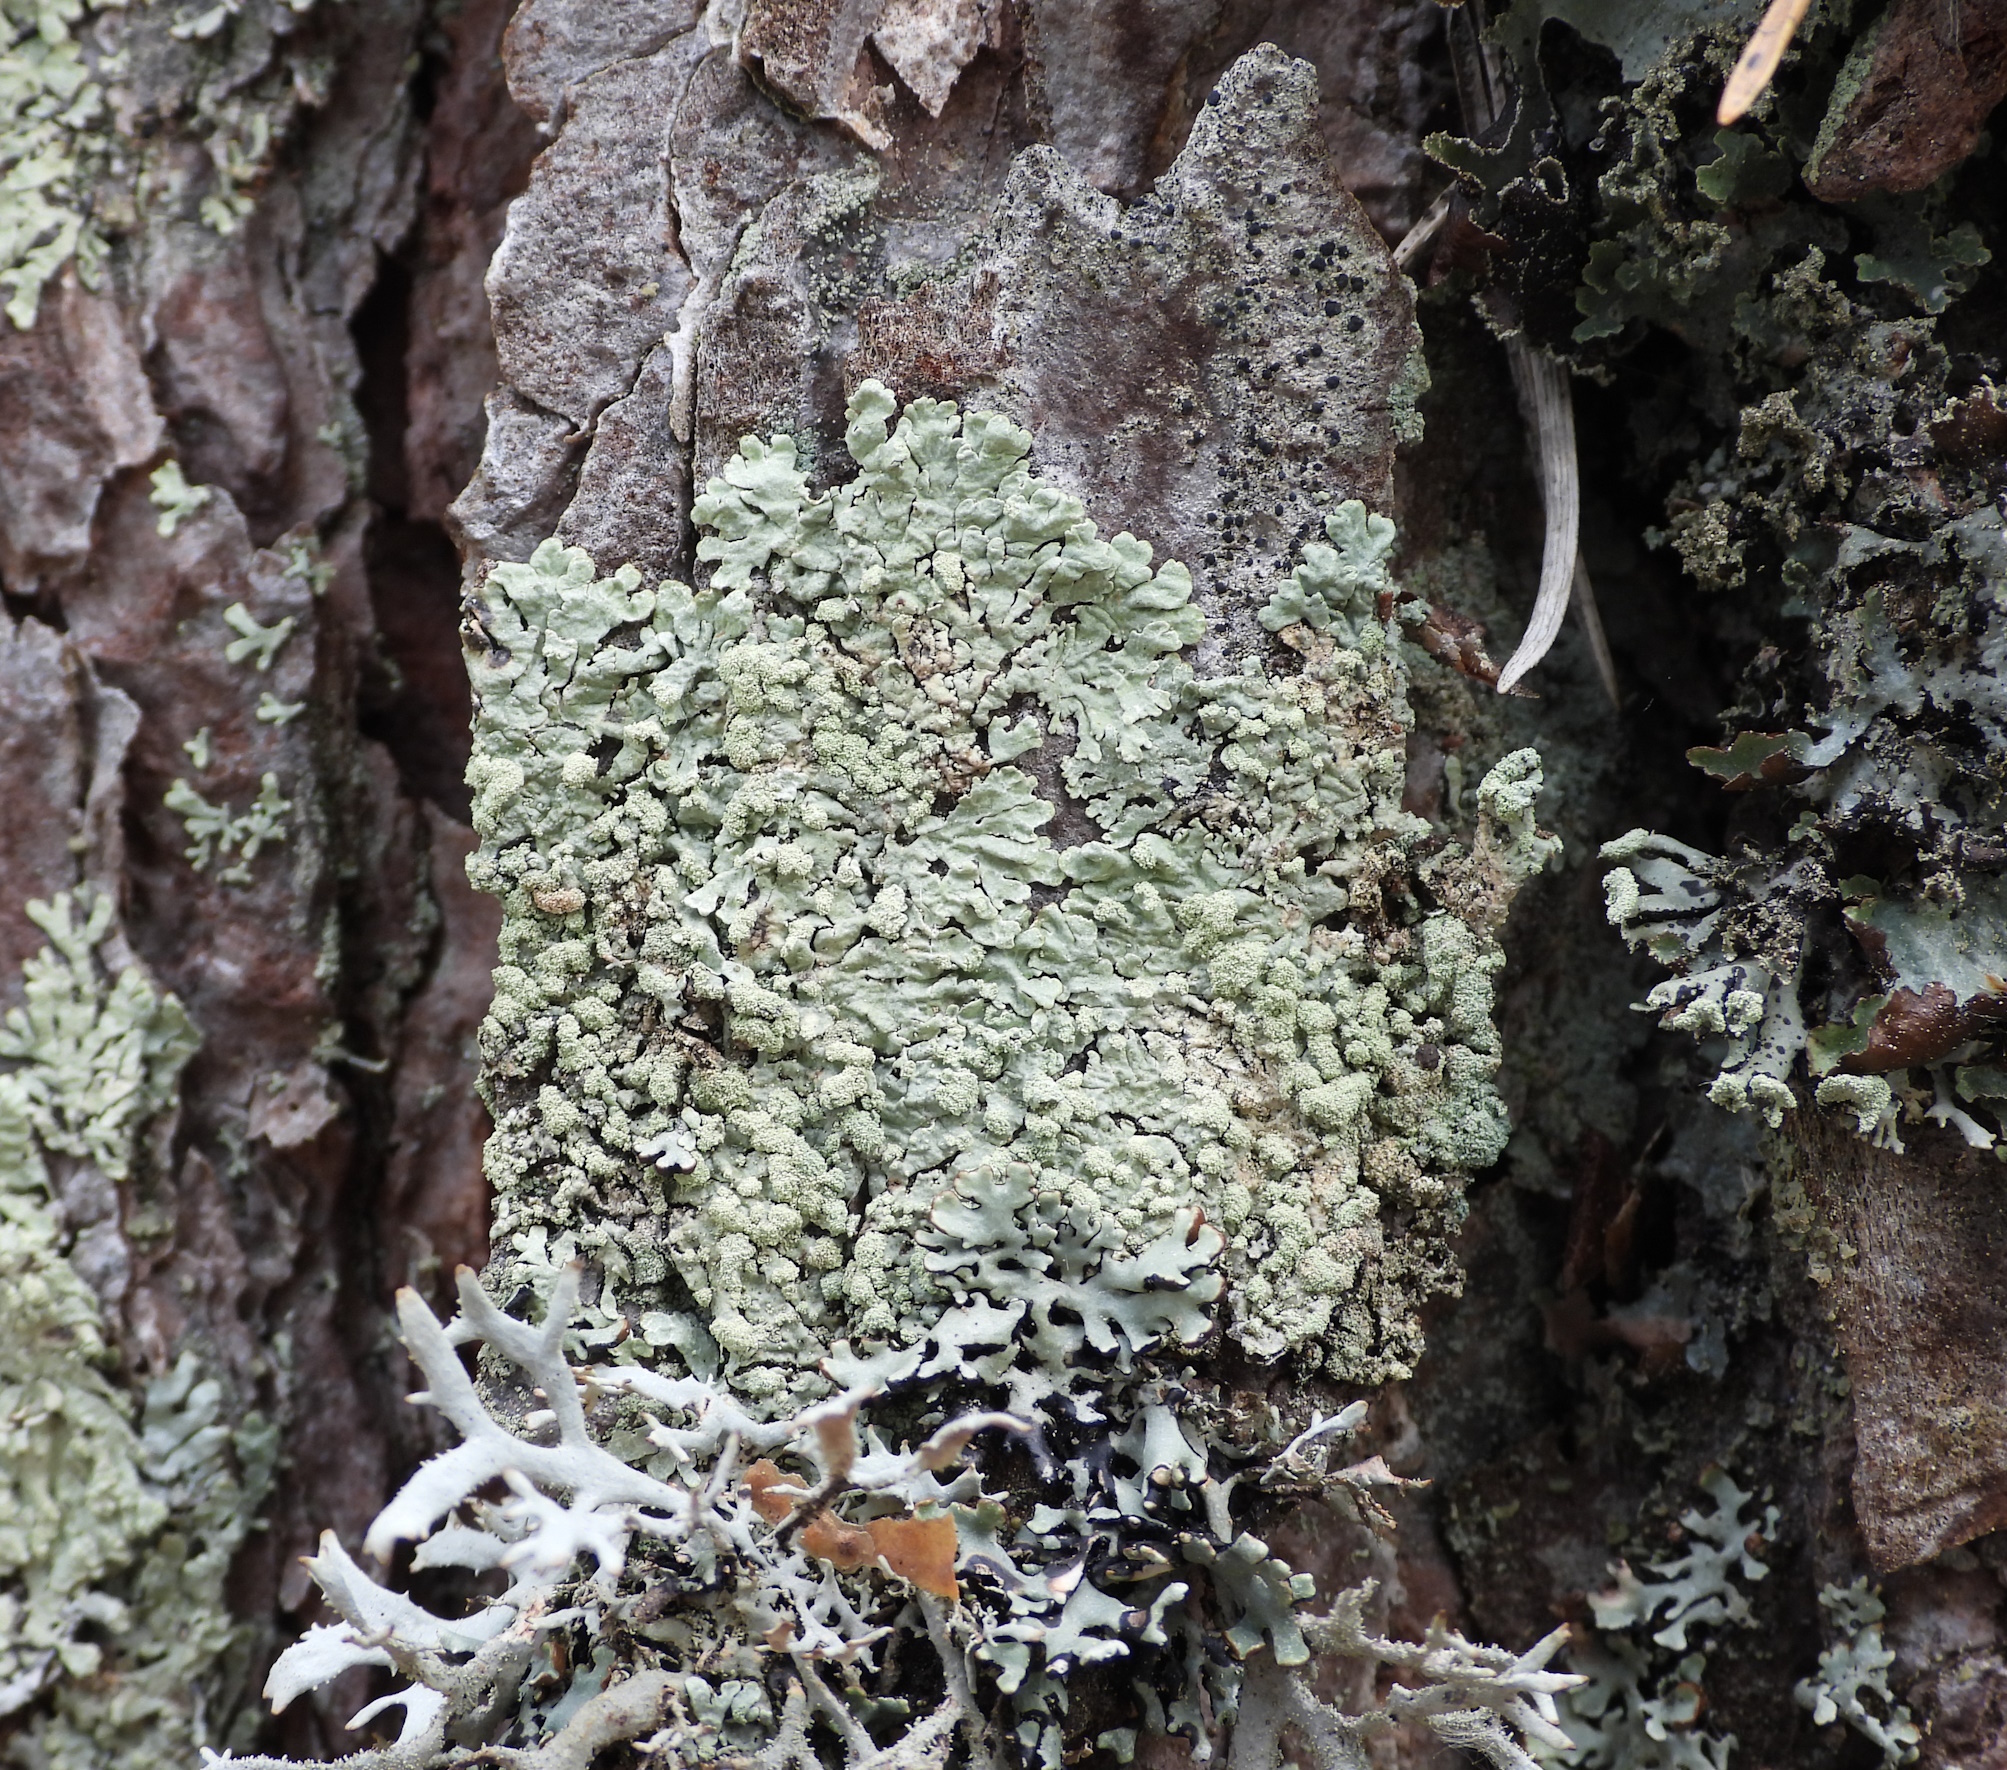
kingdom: Fungi
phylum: Ascomycota
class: Lecanoromycetes
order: Lecanorales
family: Parmeliaceae
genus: Parmeliopsis
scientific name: Parmeliopsis ambigua
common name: Green starburst lichen
